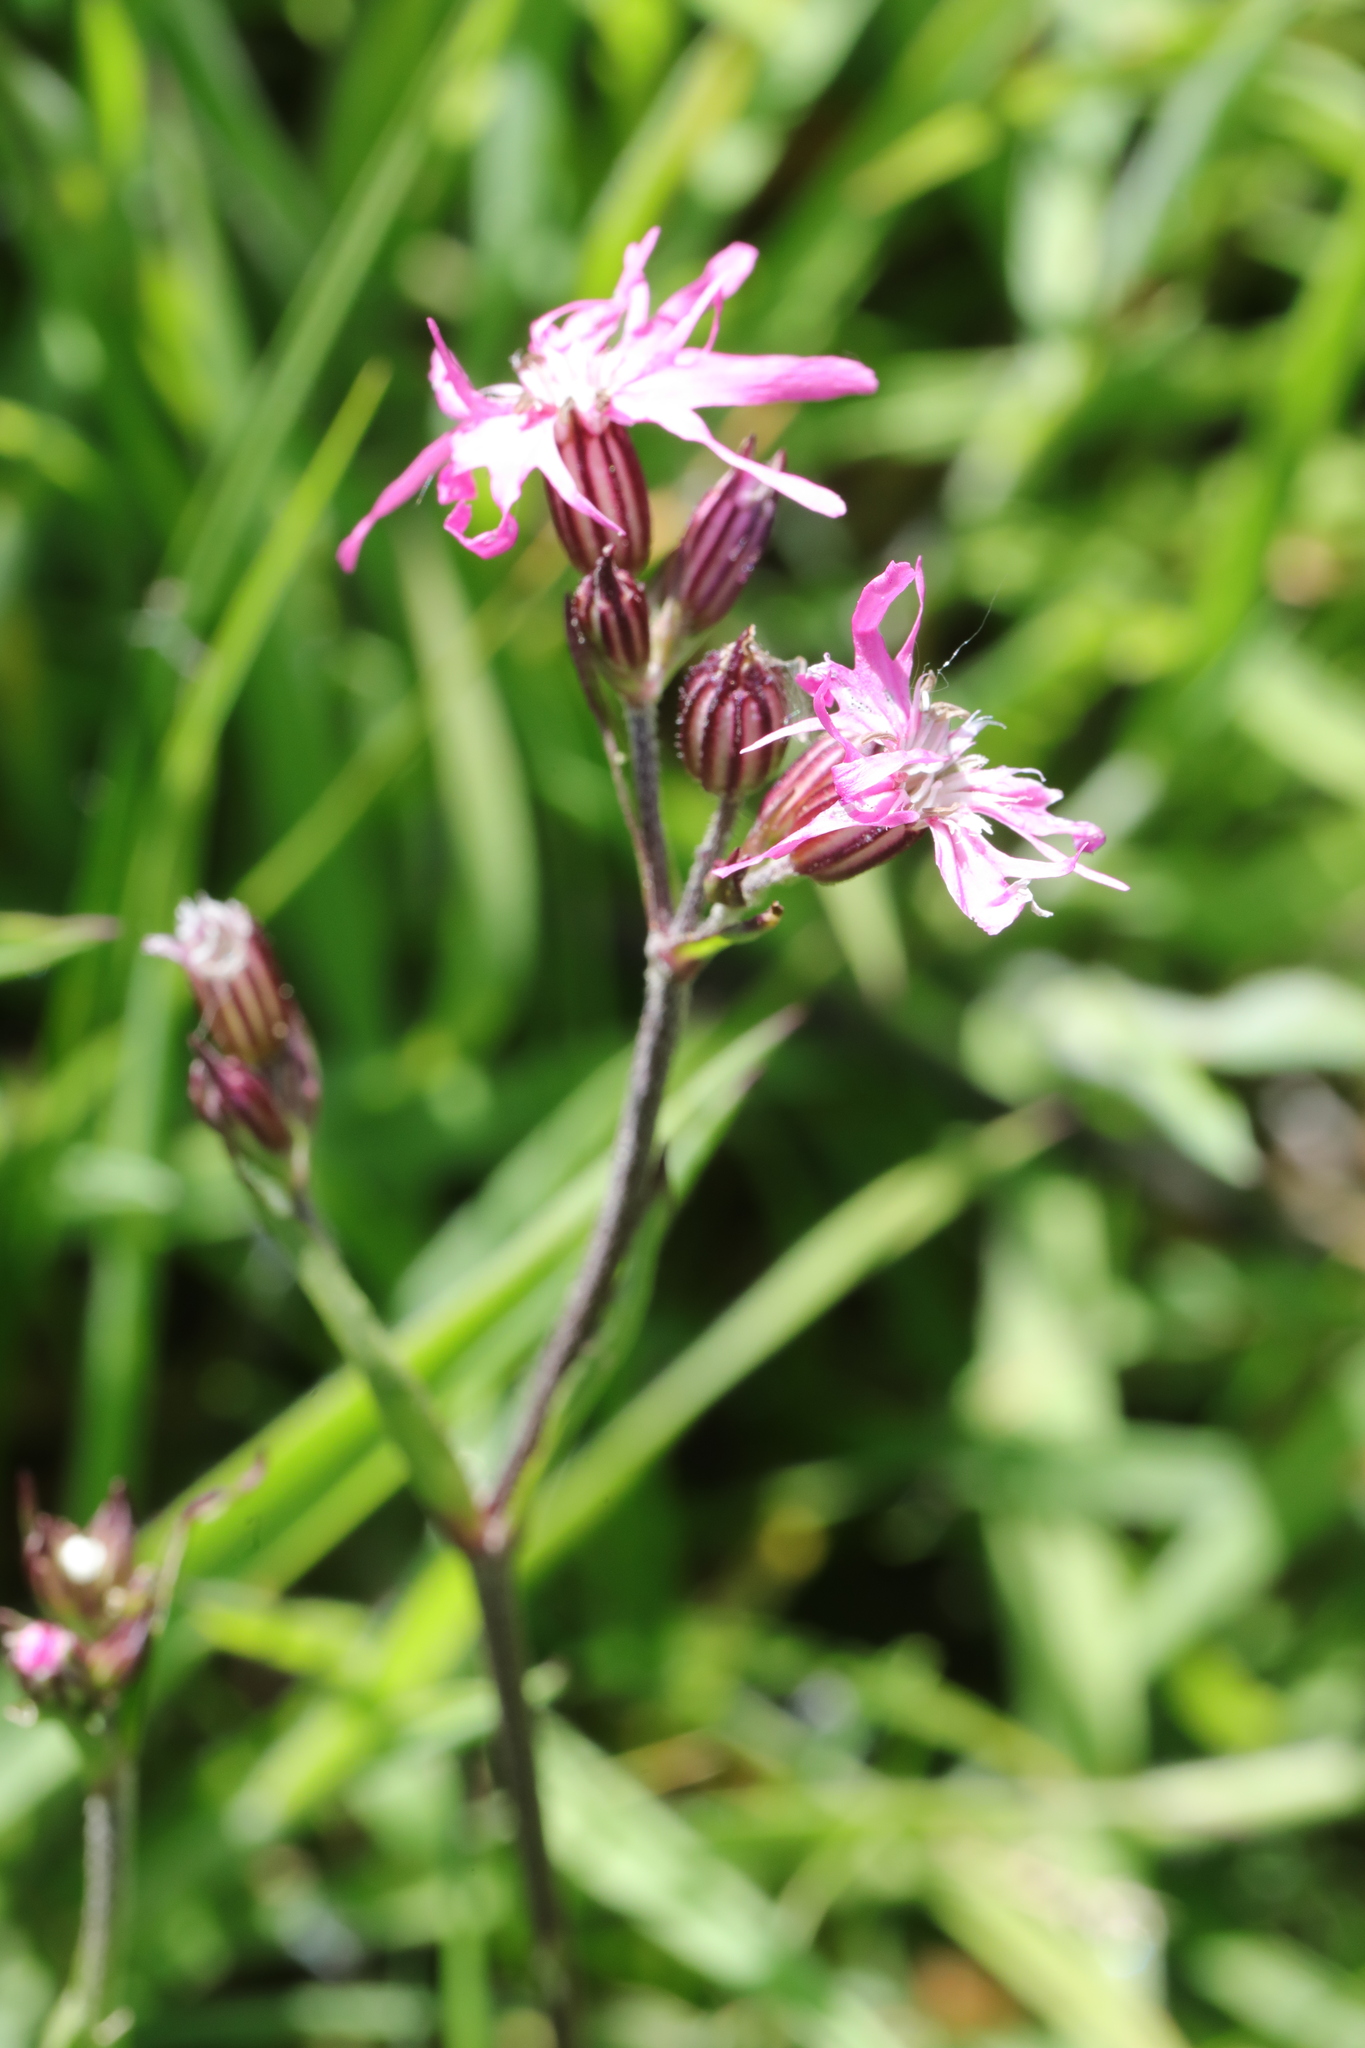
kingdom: Plantae
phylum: Tracheophyta
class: Magnoliopsida
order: Caryophyllales
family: Caryophyllaceae
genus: Silene
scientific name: Silene flos-cuculi
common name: Ragged-robin
